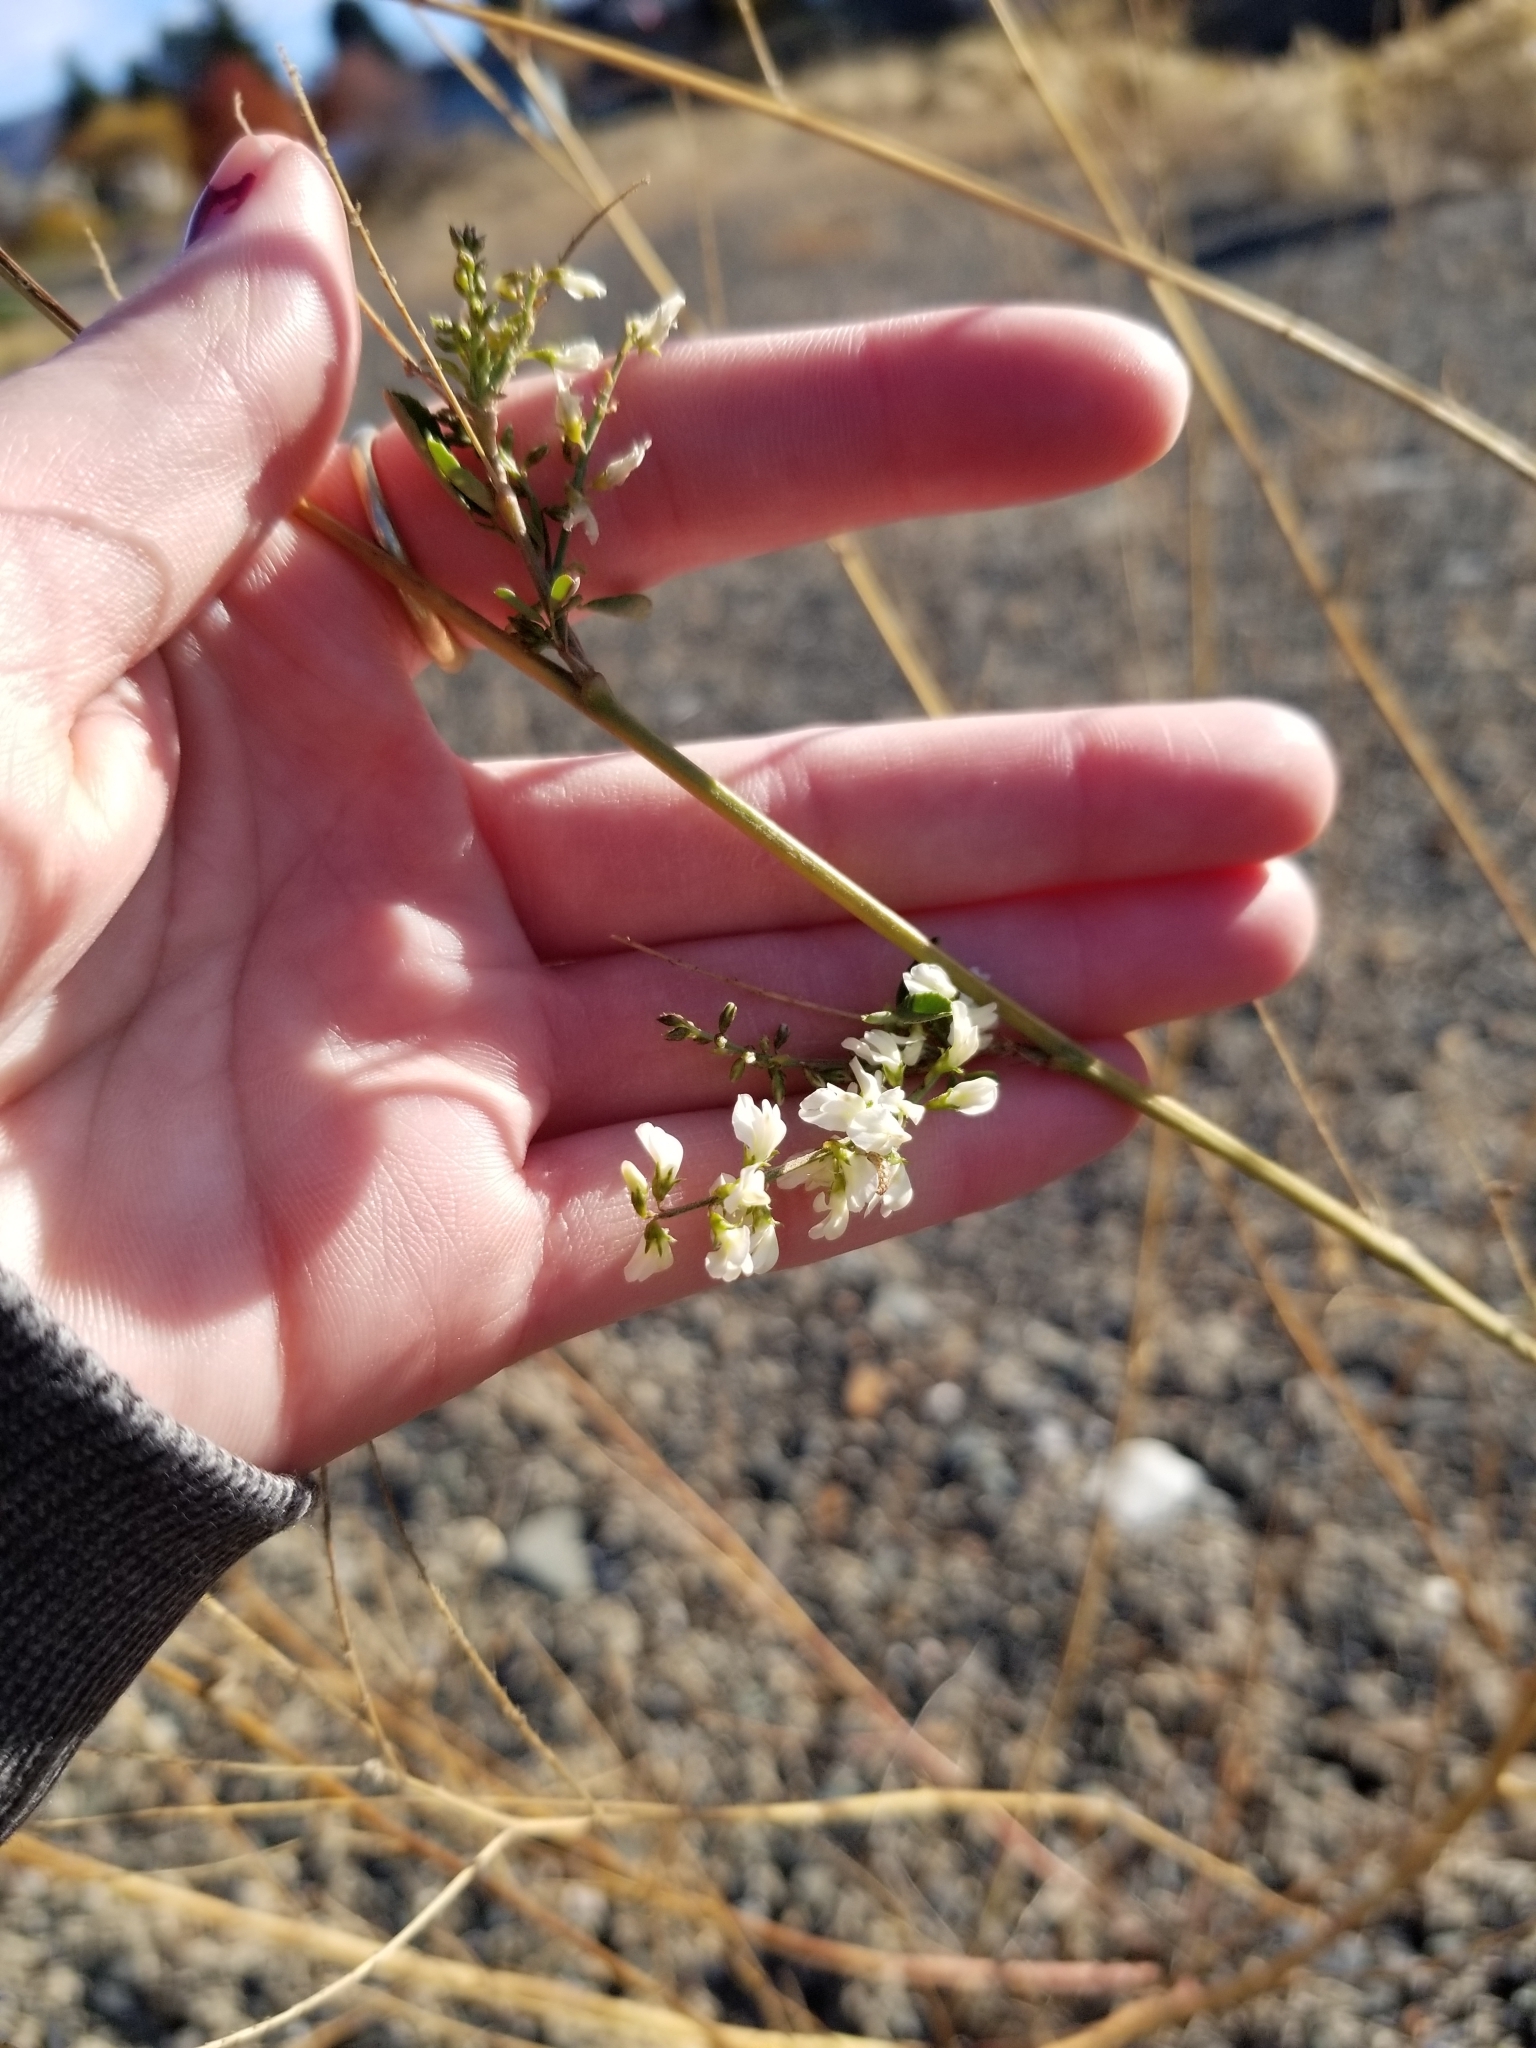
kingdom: Plantae
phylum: Tracheophyta
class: Magnoliopsida
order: Fabales
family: Fabaceae
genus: Melilotus
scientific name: Melilotus albus
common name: White melilot
